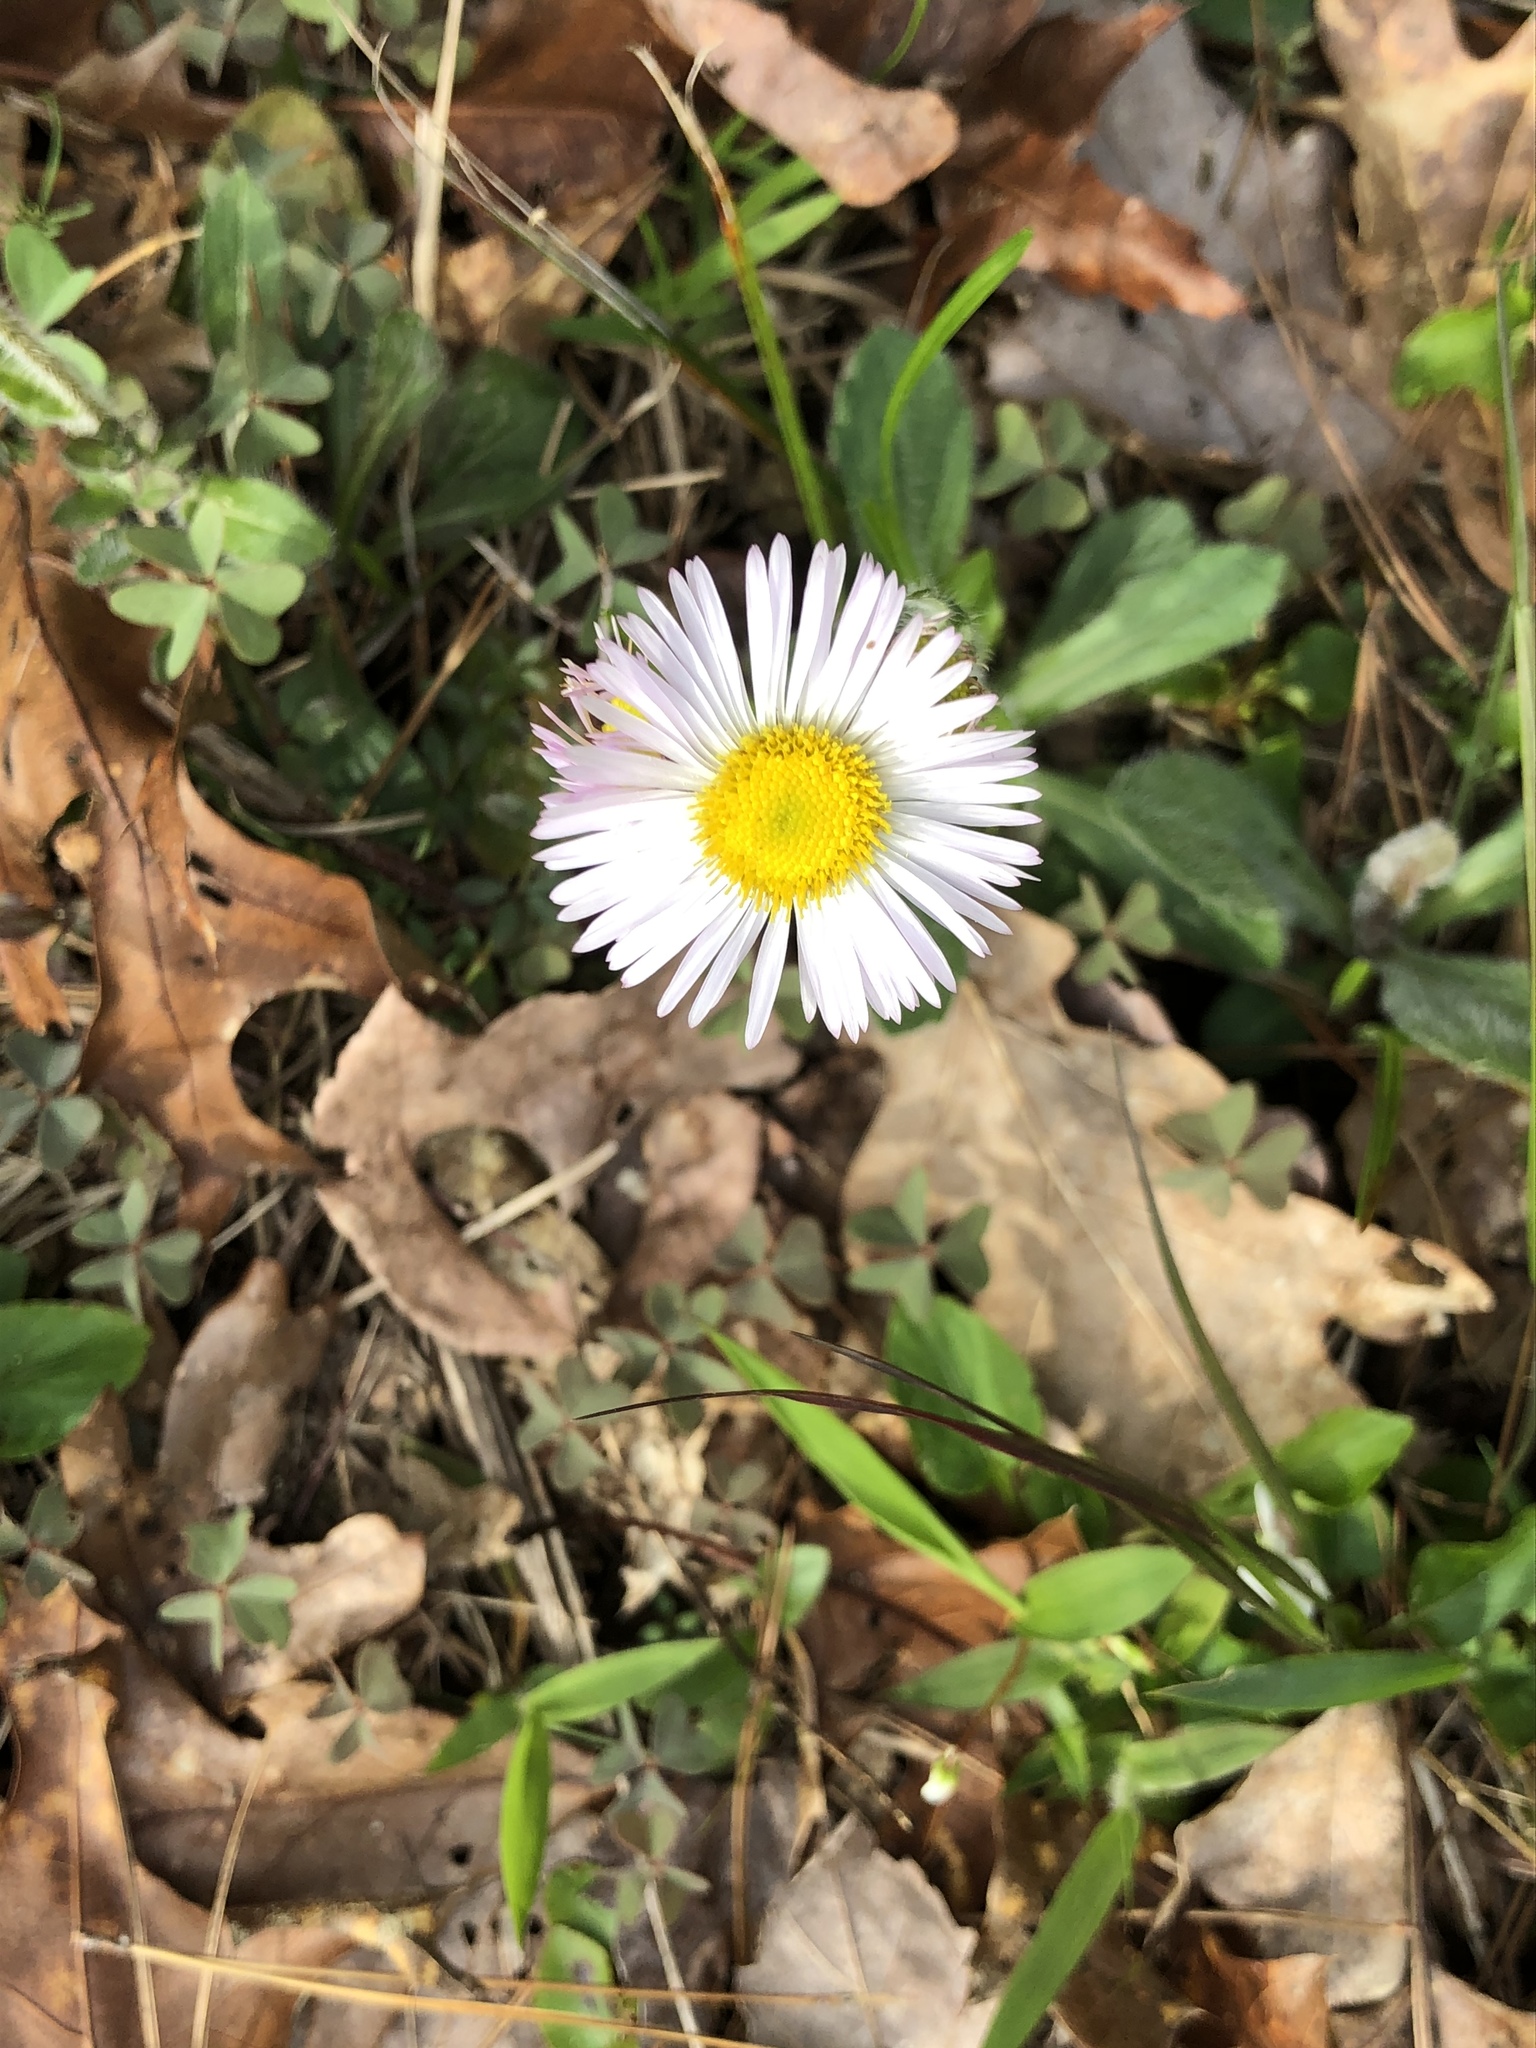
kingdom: Plantae
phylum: Tracheophyta
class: Magnoliopsida
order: Asterales
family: Asteraceae
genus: Erigeron
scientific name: Erigeron pulchellus
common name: Hairy fleabane
